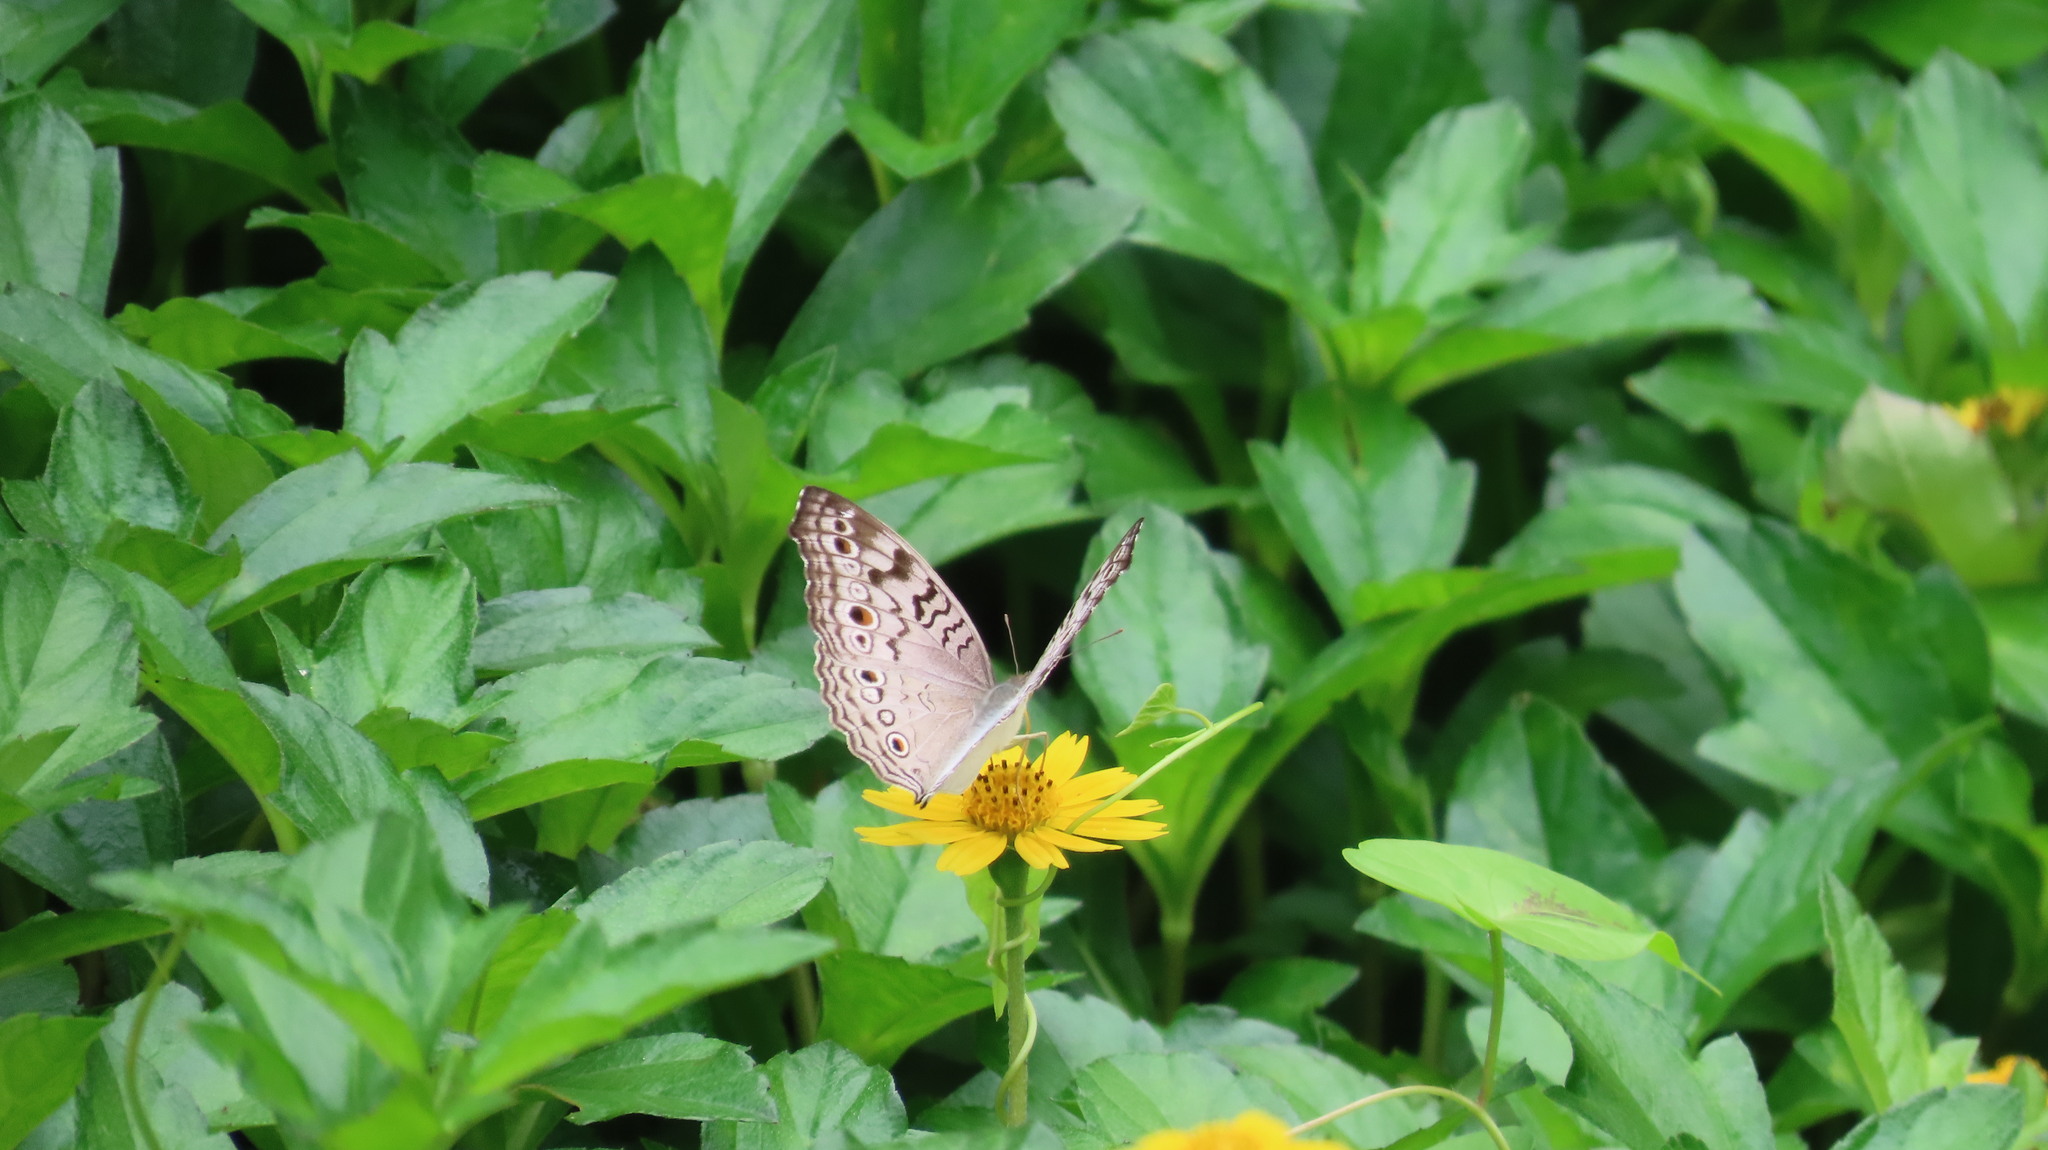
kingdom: Animalia
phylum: Arthropoda
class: Insecta
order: Lepidoptera
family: Nymphalidae
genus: Junonia
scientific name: Junonia atlites
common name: Grey pansy
